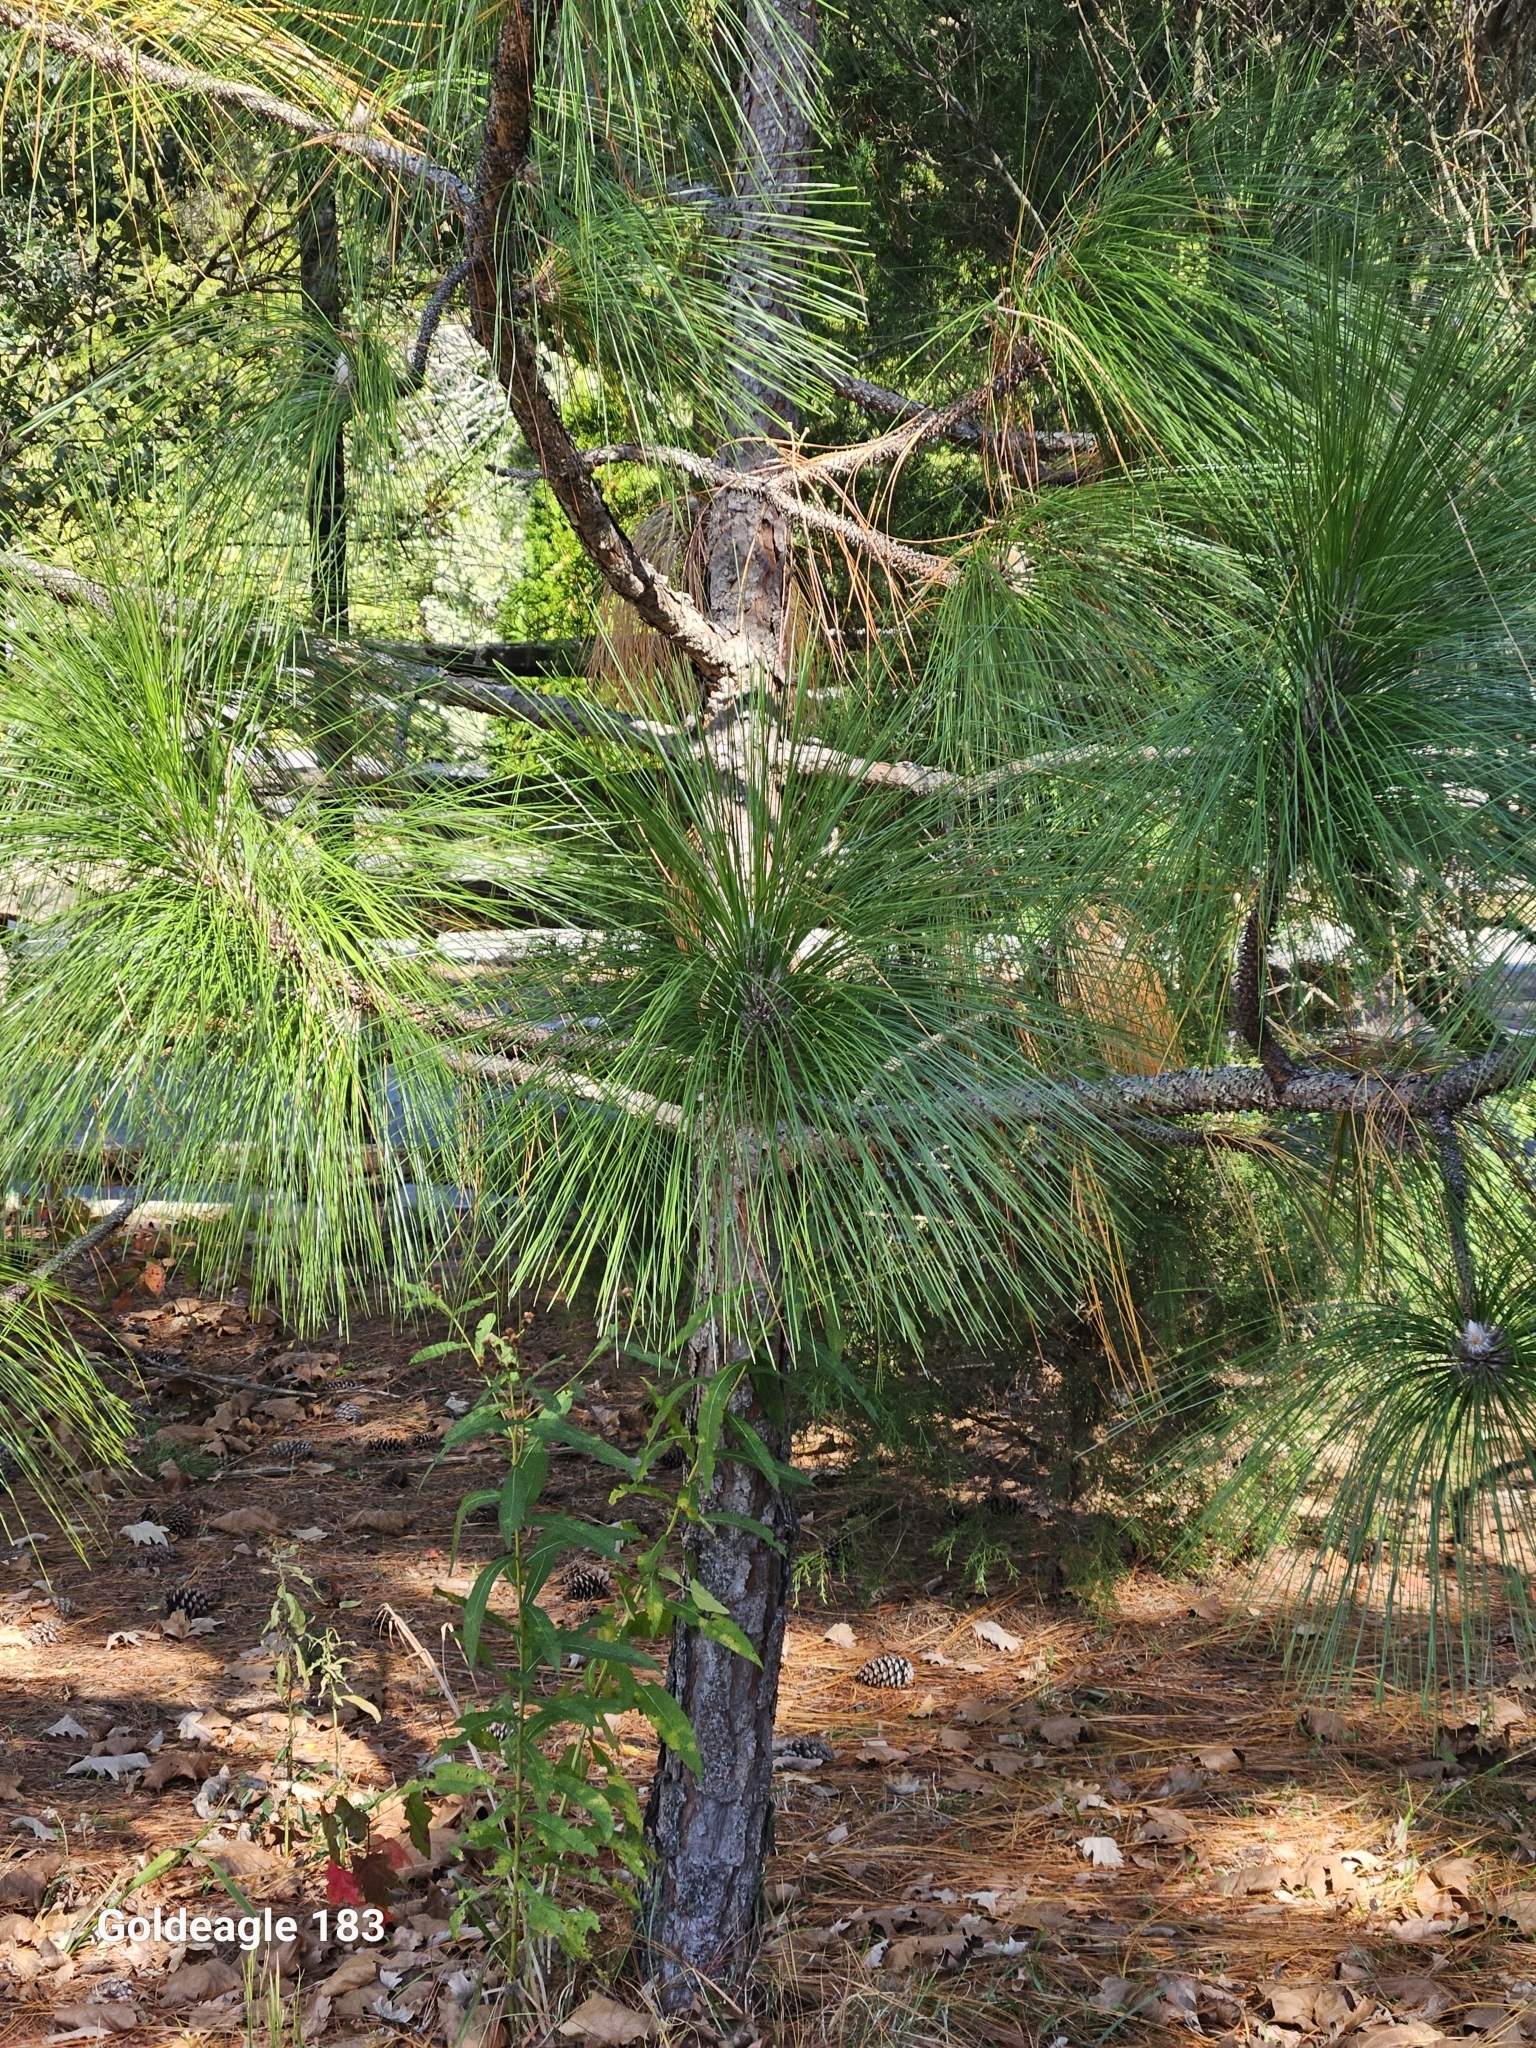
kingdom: Plantae
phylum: Tracheophyta
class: Pinopsida
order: Pinales
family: Pinaceae
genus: Pinus
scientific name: Pinus palustris
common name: Longleaf pine
